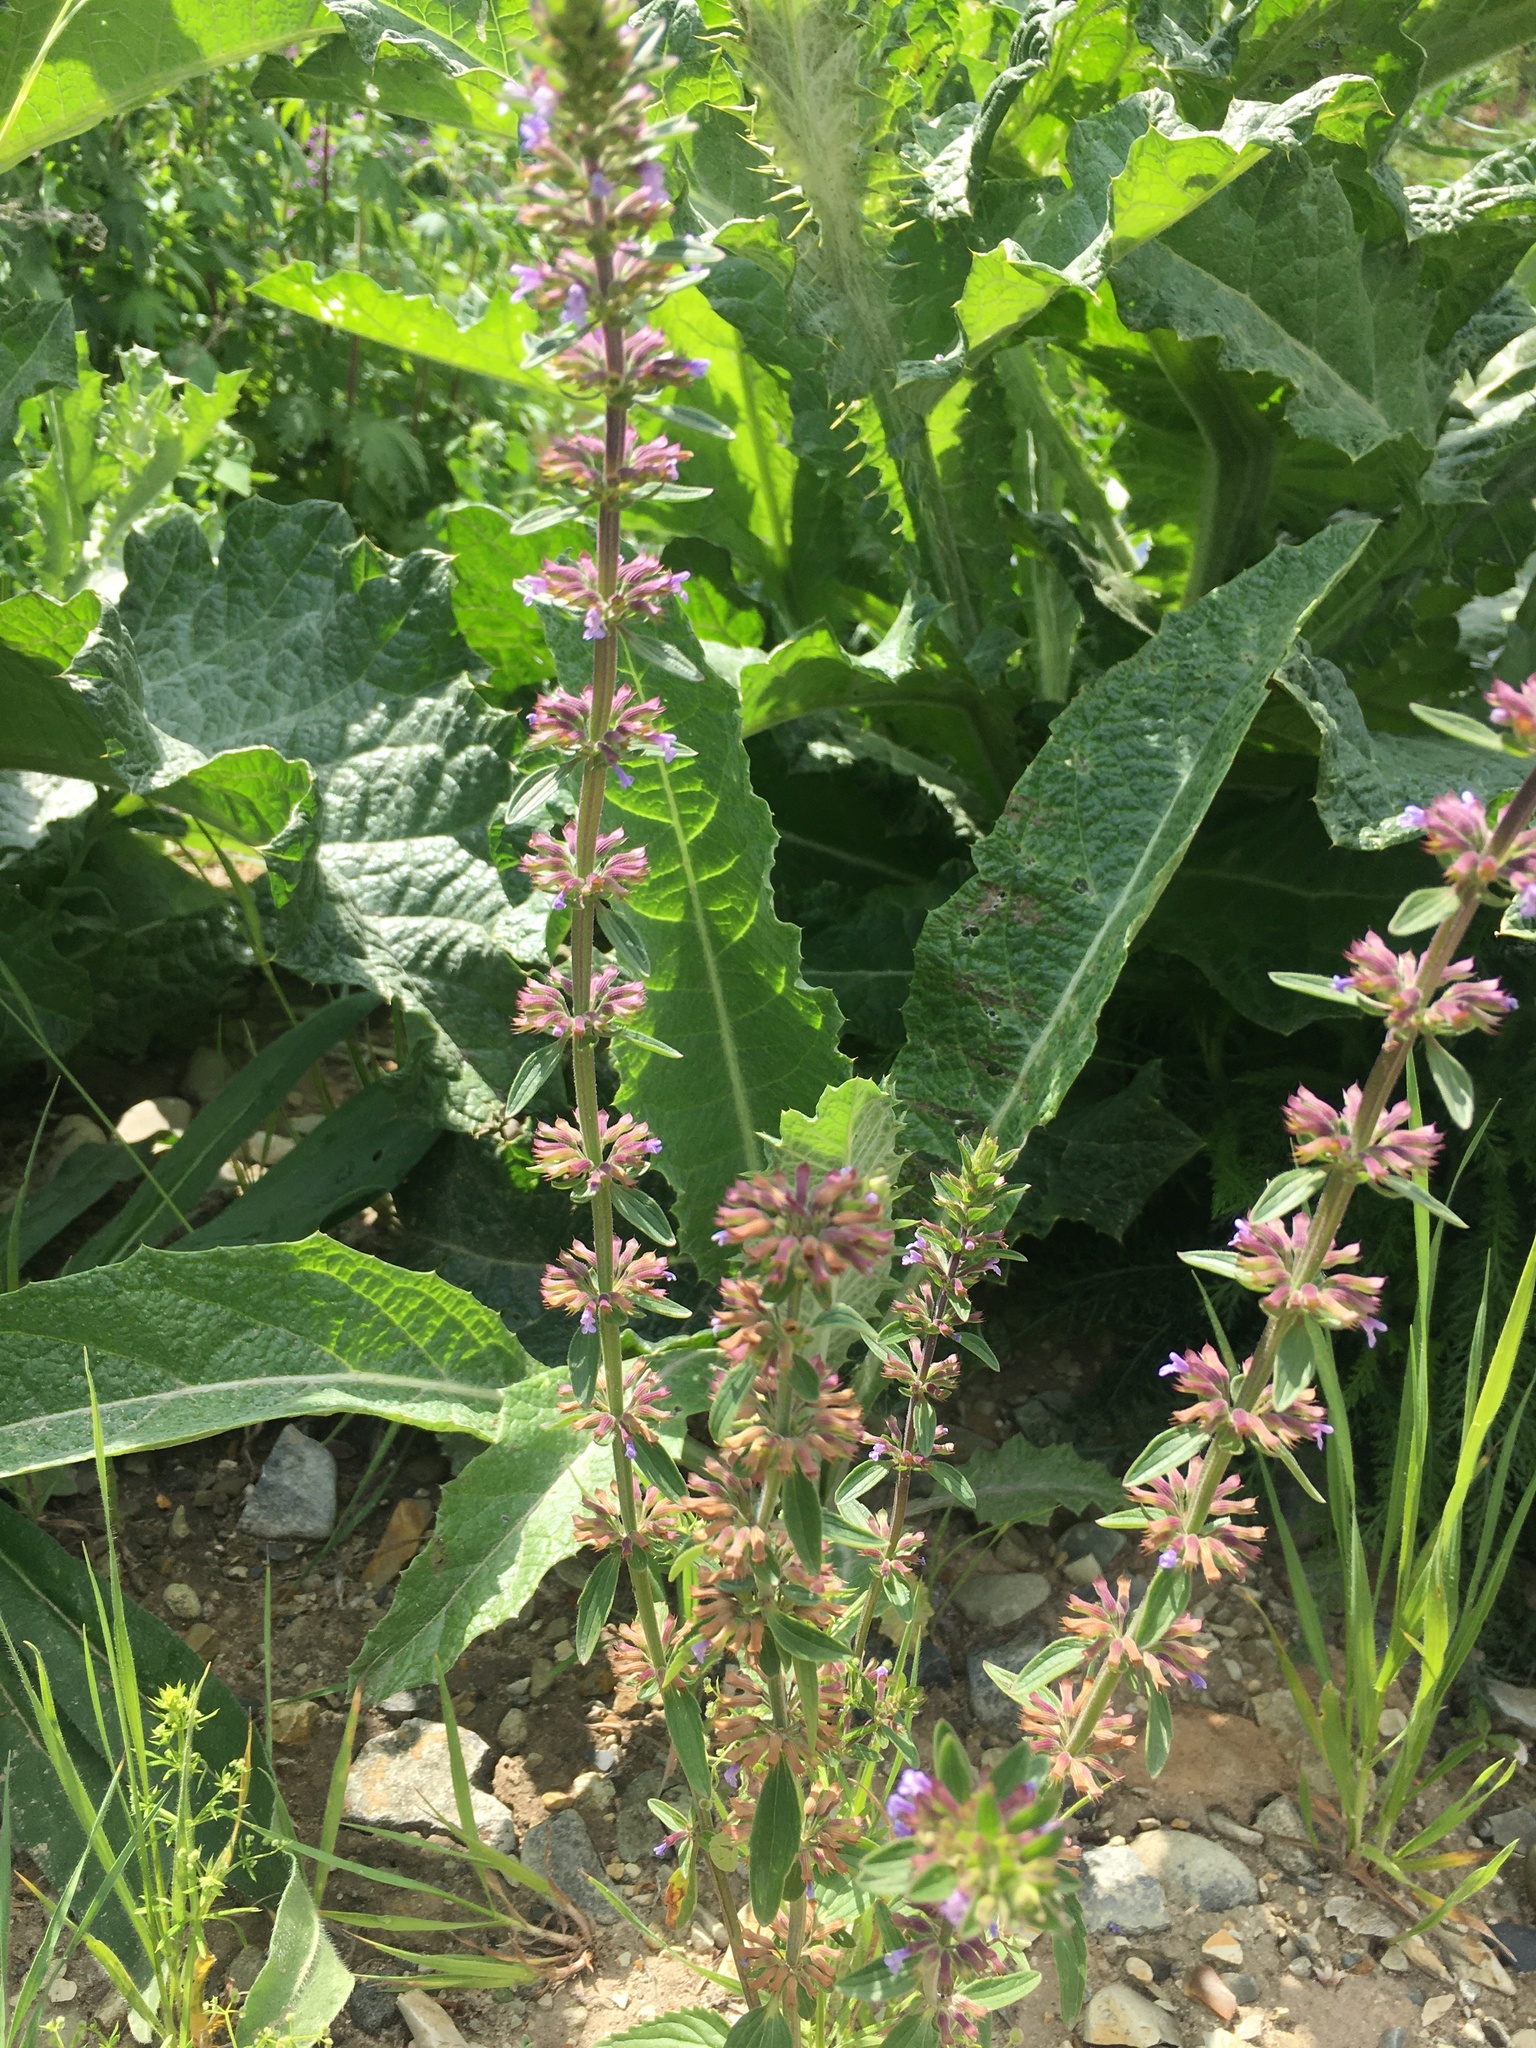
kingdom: Plantae
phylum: Tracheophyta
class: Magnoliopsida
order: Lamiales
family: Lamiaceae
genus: Dracocephalum
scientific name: Dracocephalum thymiflorum
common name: Thymeleaf dragonhead
